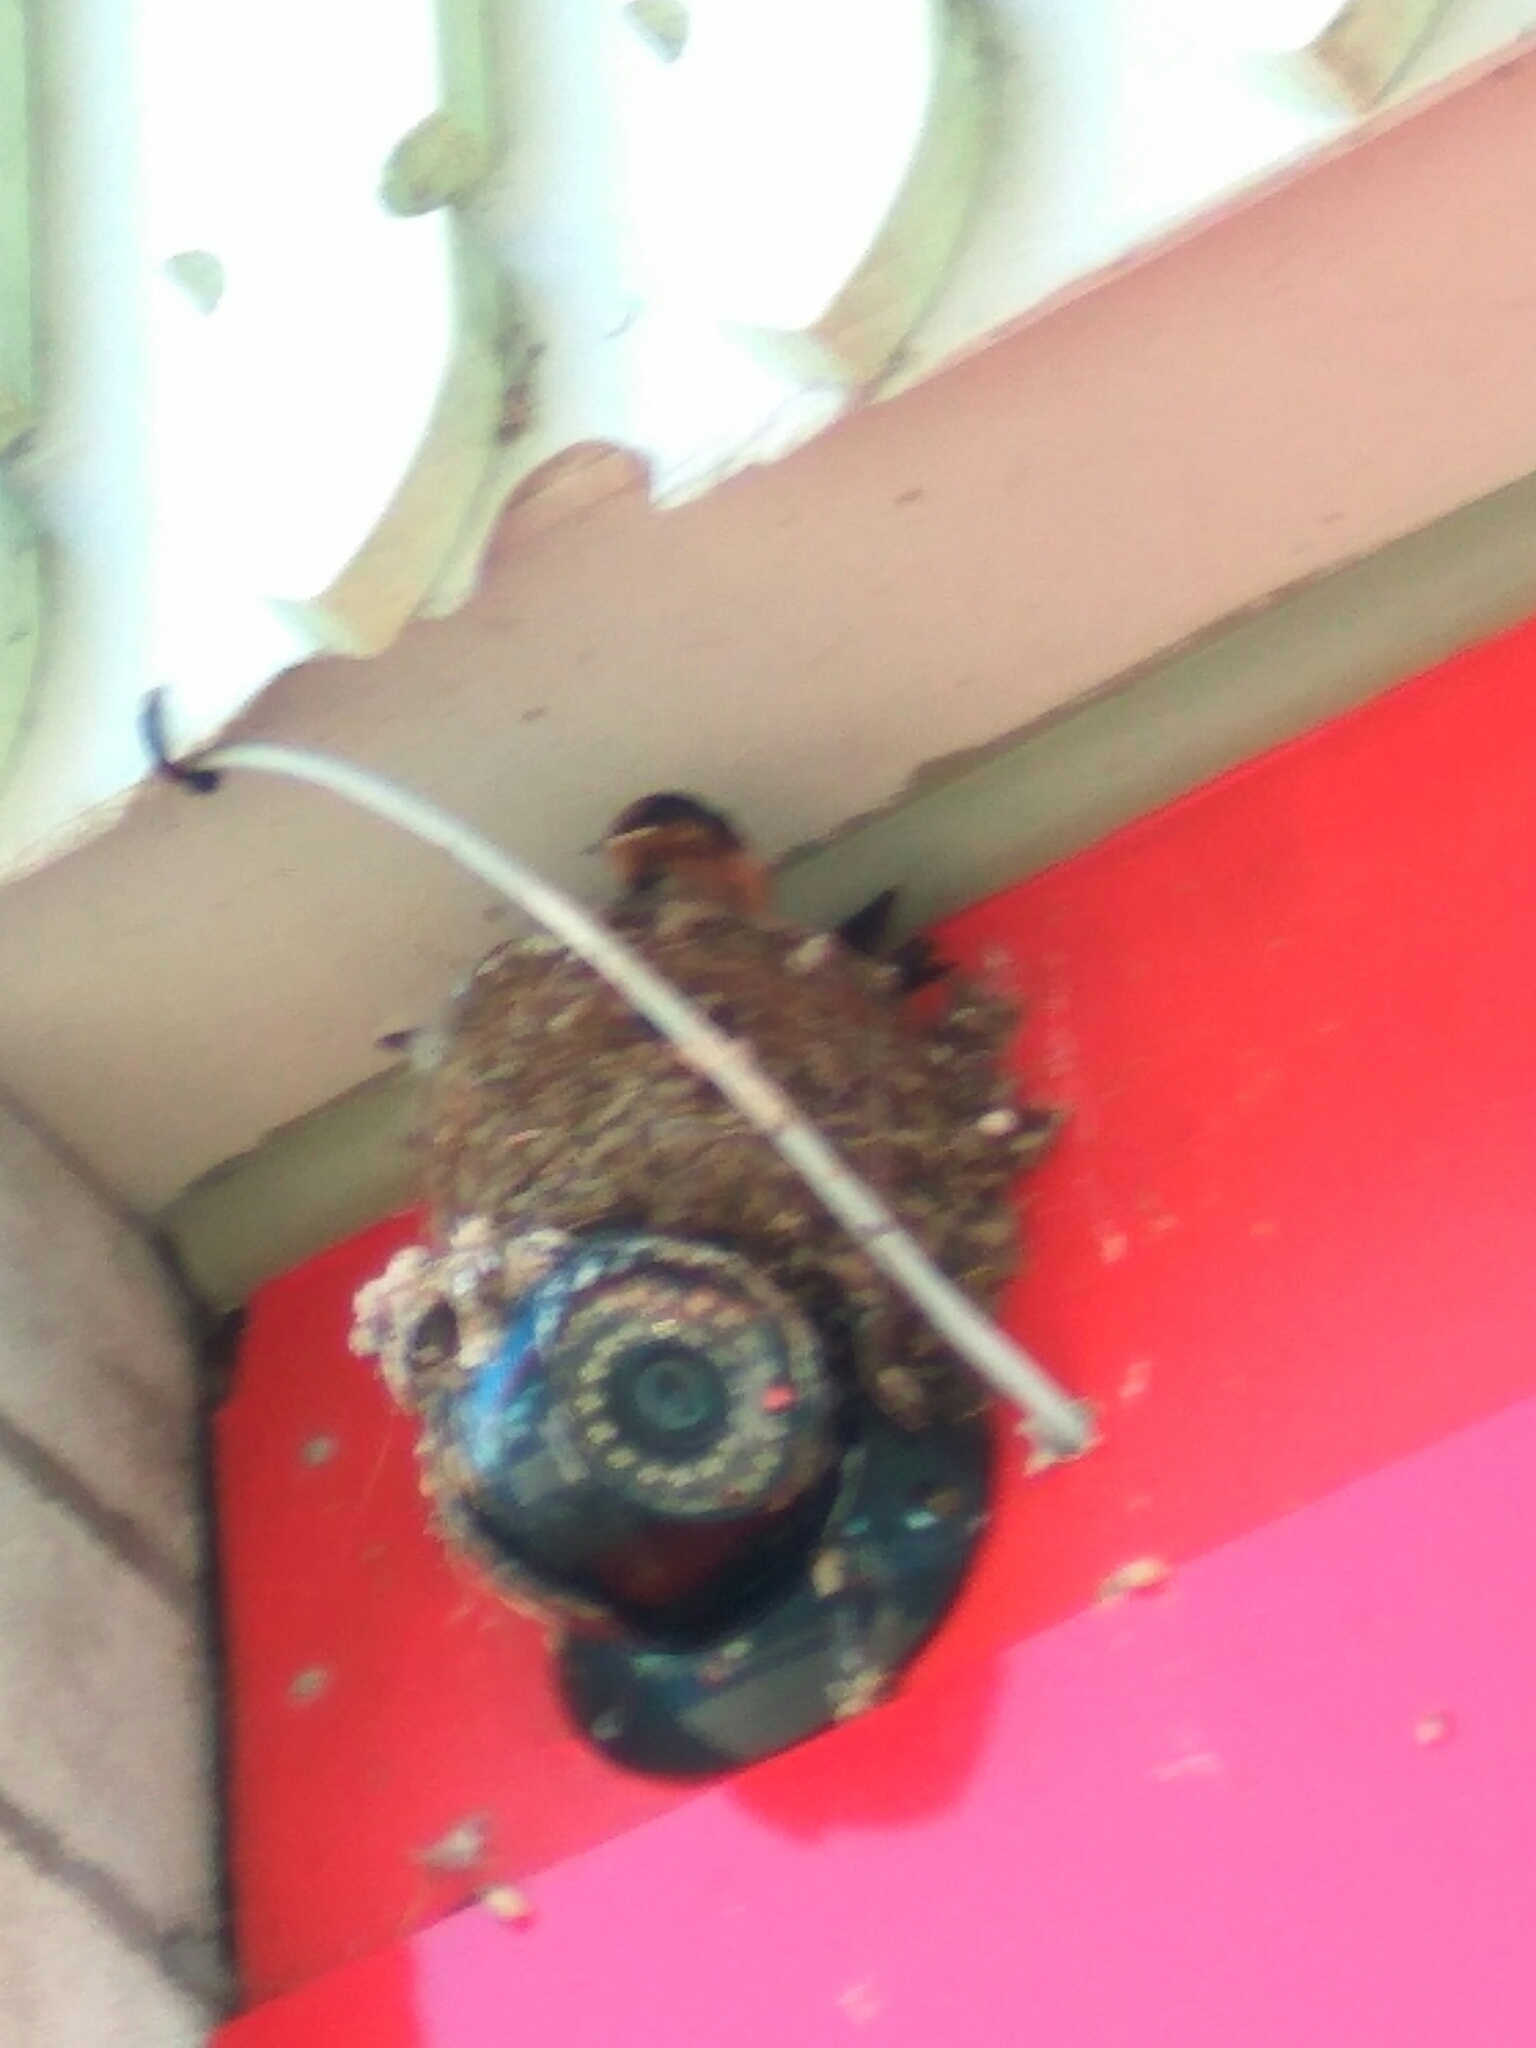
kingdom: Animalia
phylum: Chordata
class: Aves
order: Passeriformes
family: Hirundinidae
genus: Hirundo
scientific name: Hirundo neoxena
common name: Welcome swallow
